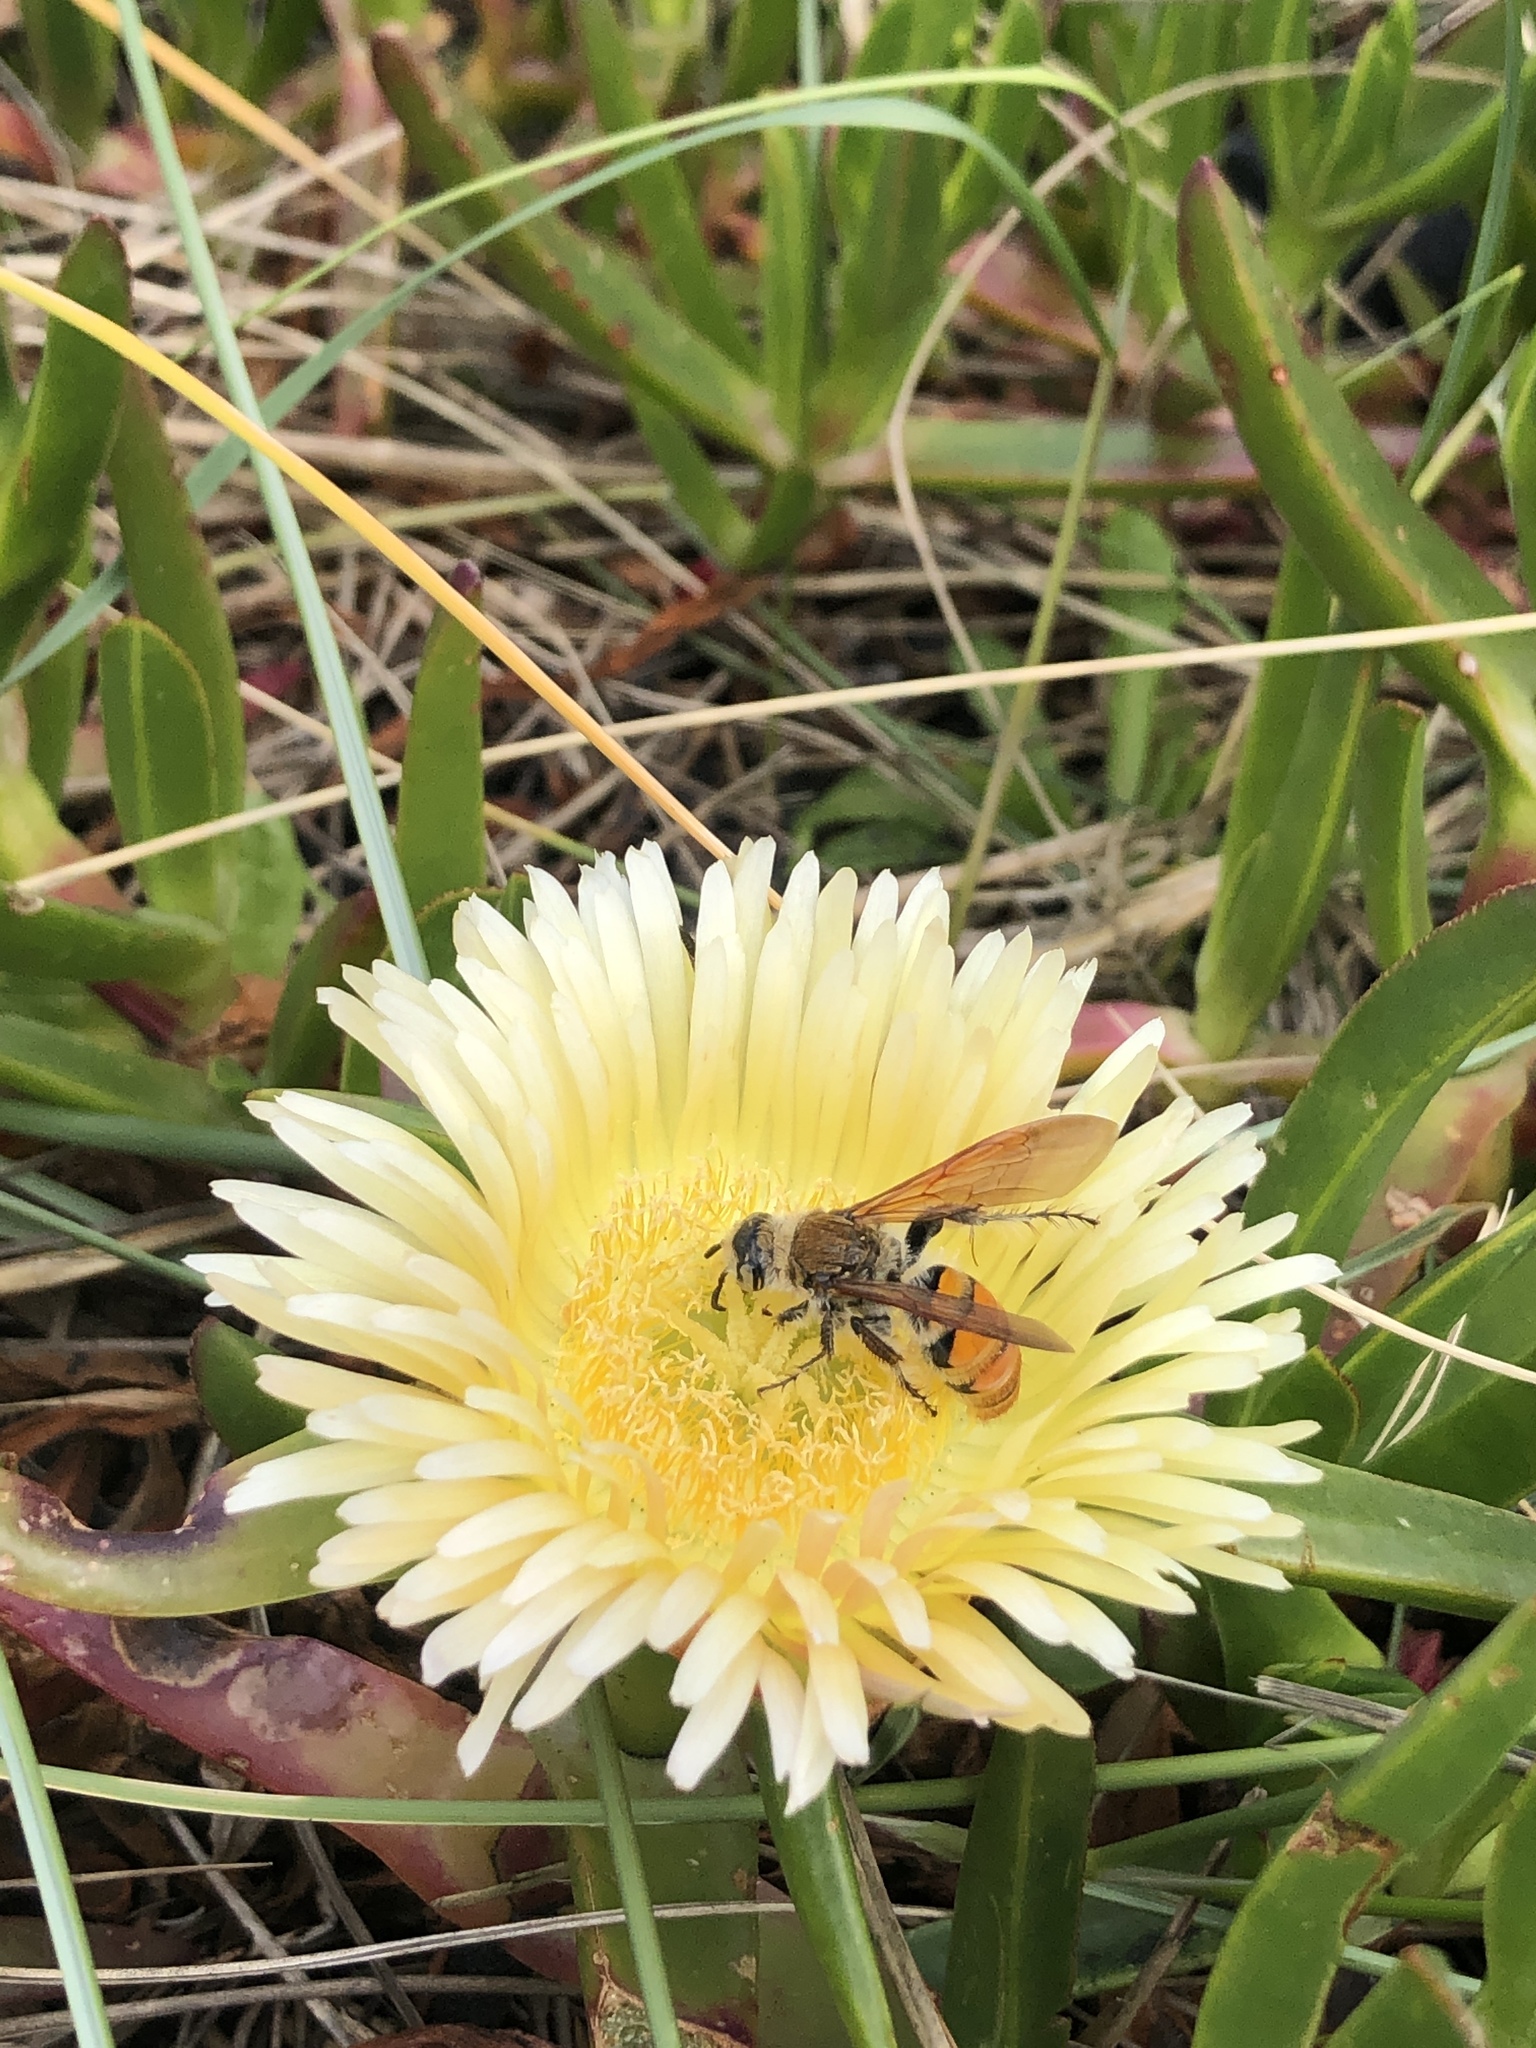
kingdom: Animalia
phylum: Arthropoda
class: Insecta
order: Hymenoptera
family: Scoliidae
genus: Radumeris
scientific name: Radumeris tasmaniensis
